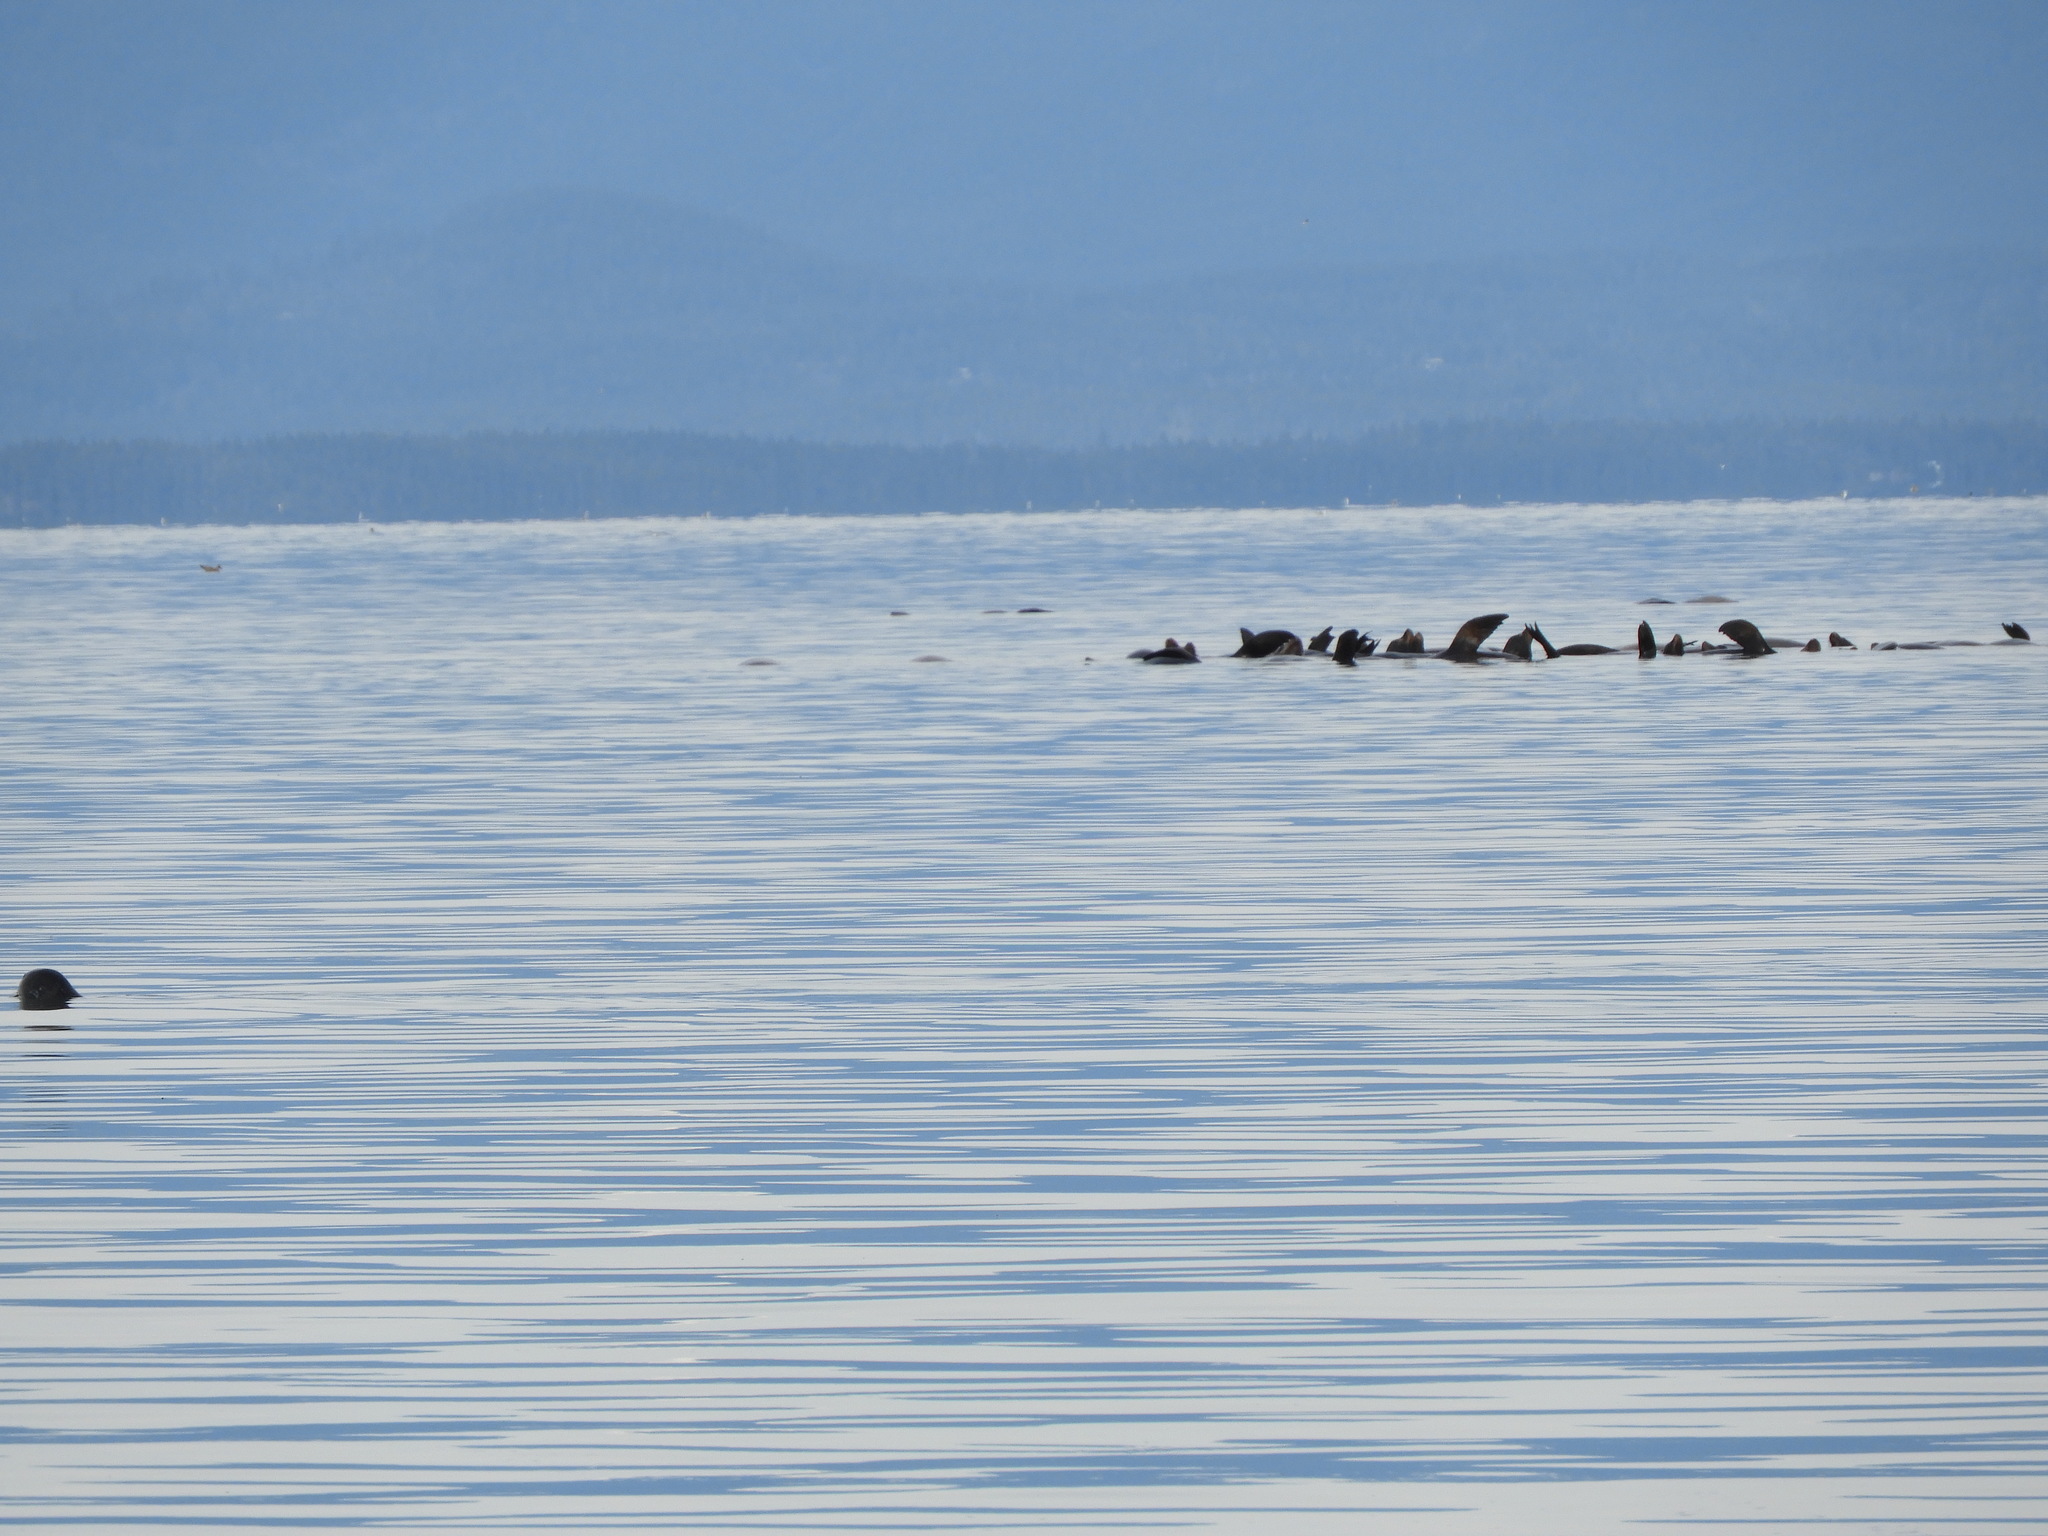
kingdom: Animalia
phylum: Chordata
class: Mammalia
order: Carnivora
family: Otariidae
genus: Eumetopias
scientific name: Eumetopias jubatus
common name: Steller sea lion
